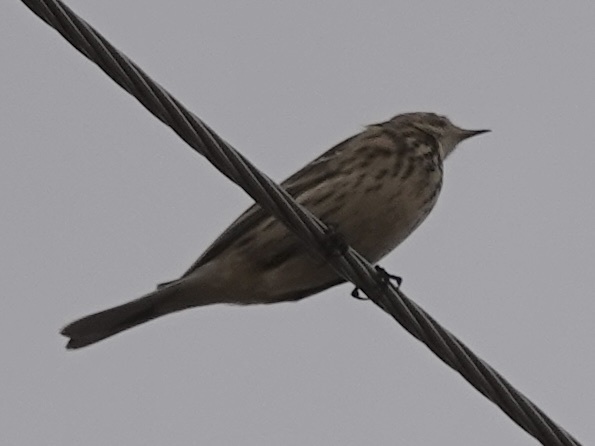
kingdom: Animalia
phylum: Chordata
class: Aves
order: Passeriformes
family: Motacillidae
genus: Anthus
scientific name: Anthus rubescens
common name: Buff-bellied pipit
